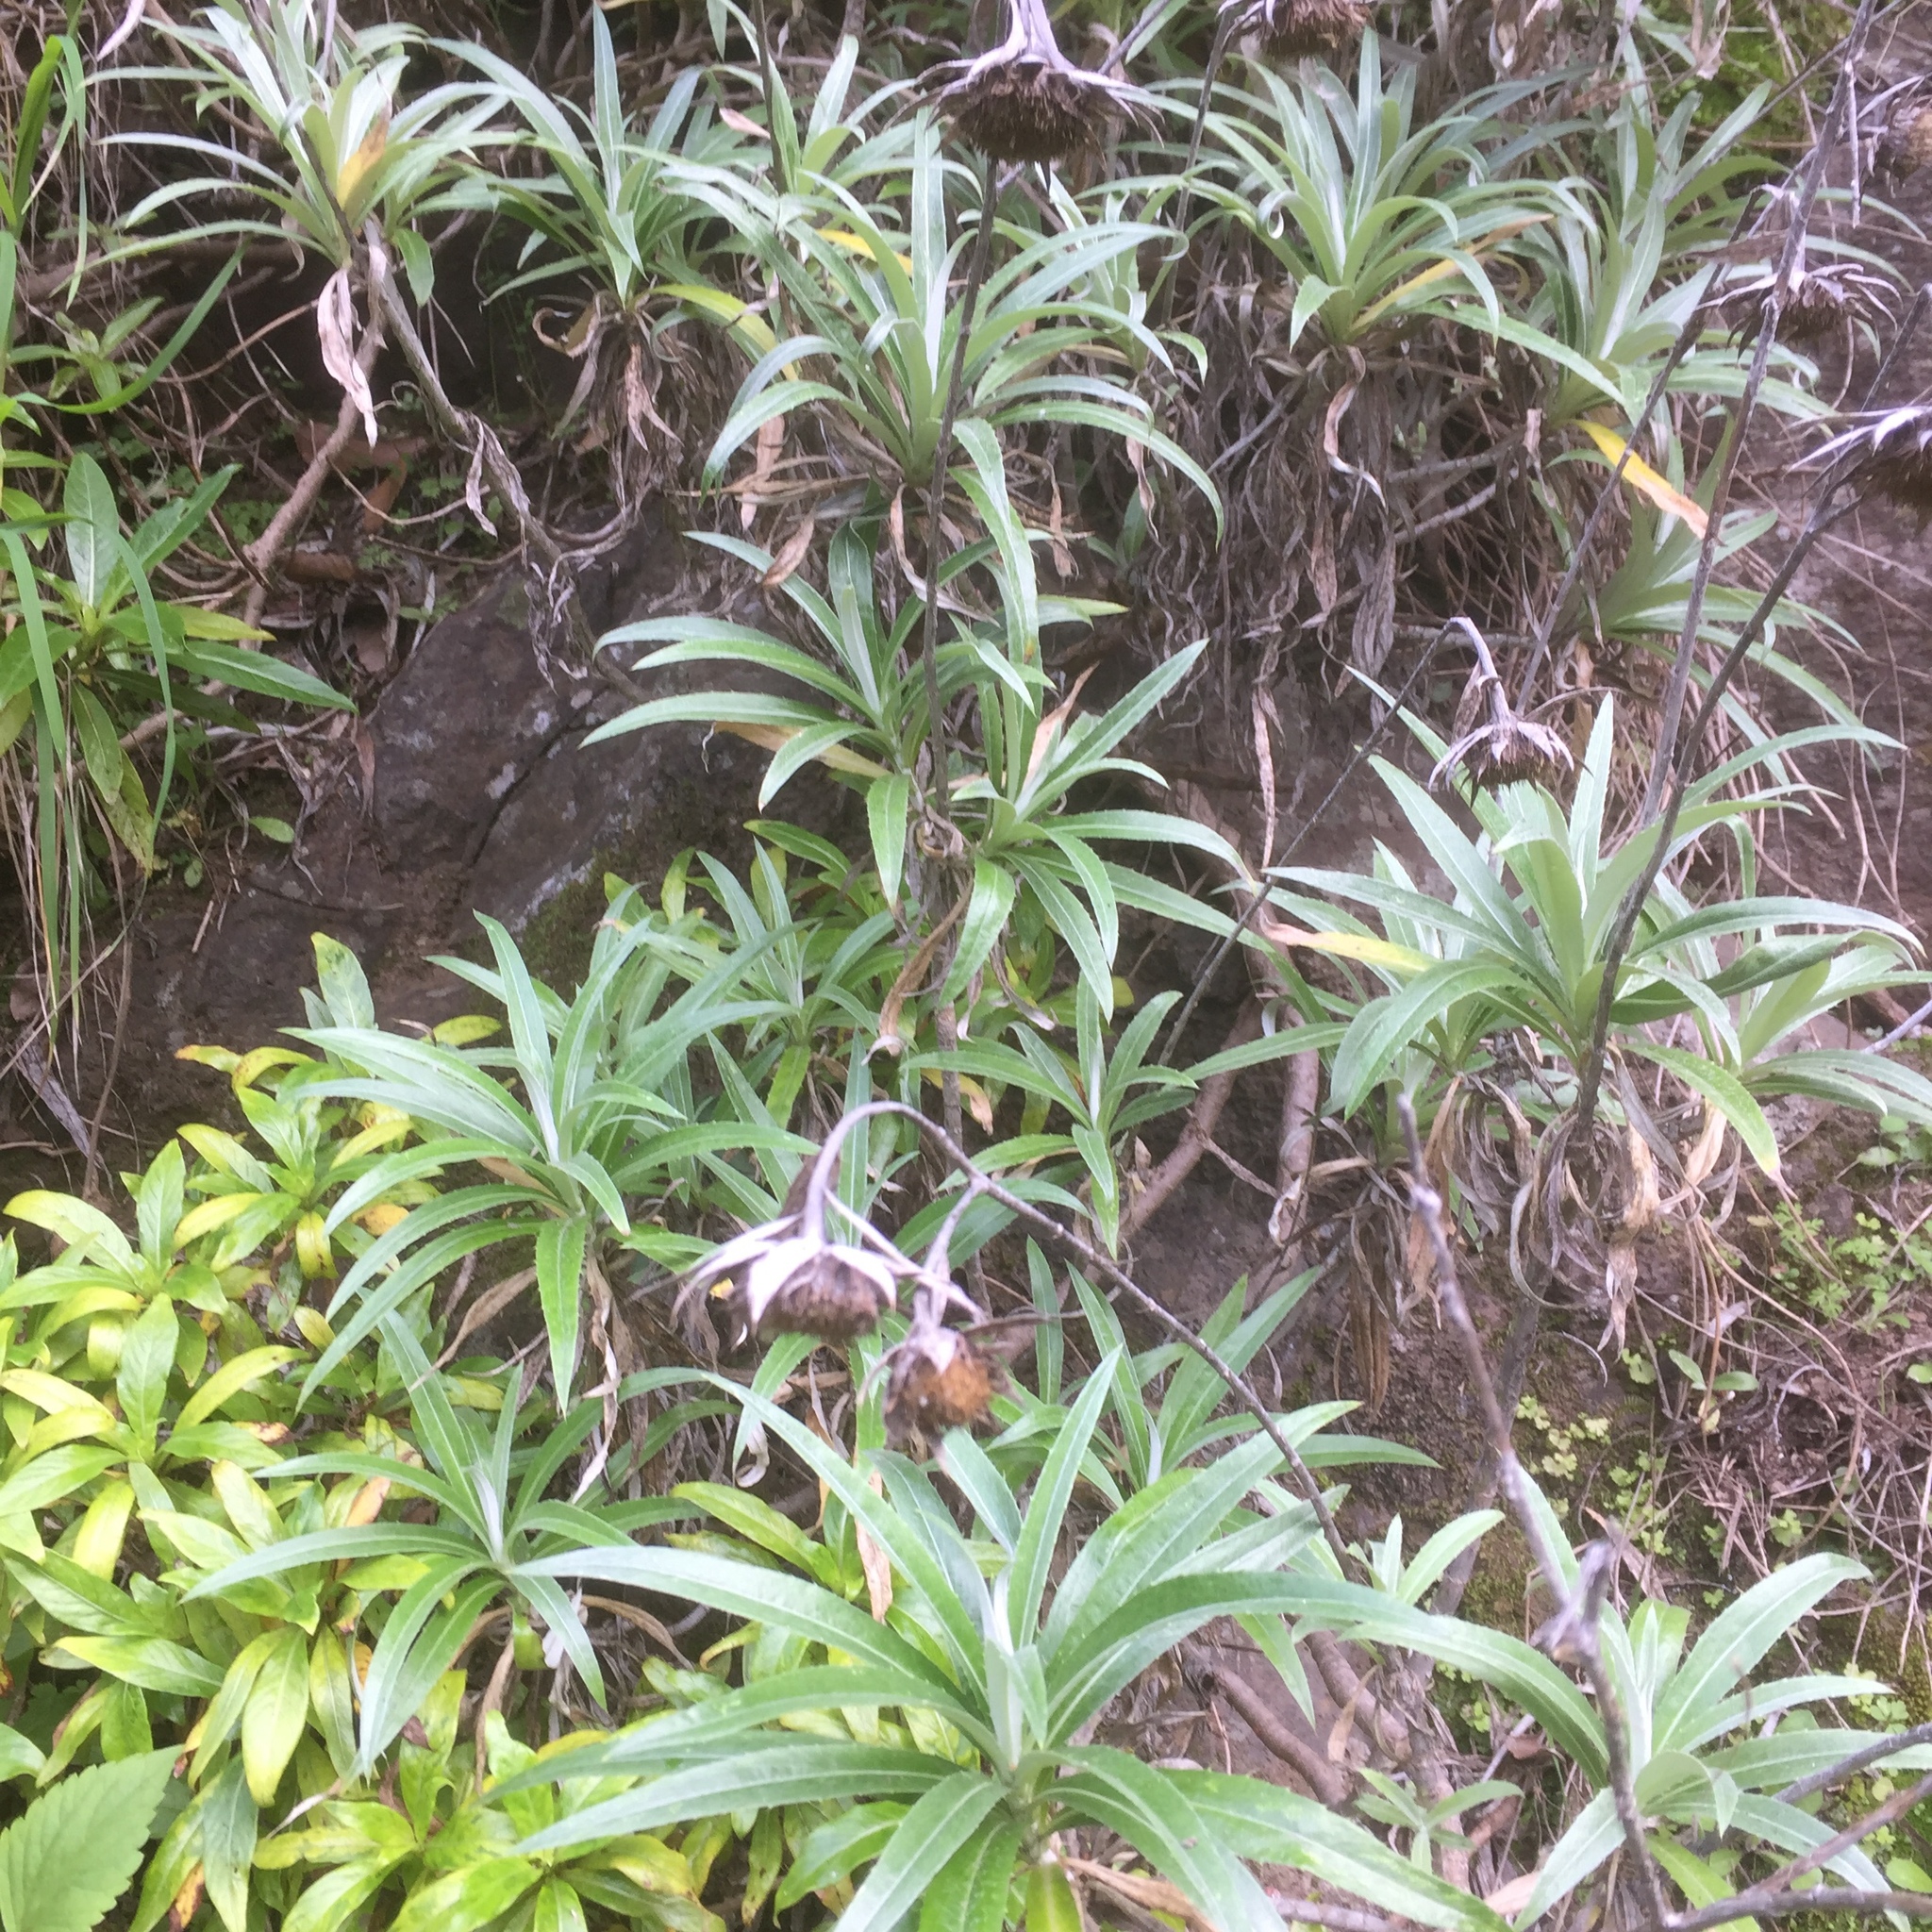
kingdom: Plantae
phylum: Tracheophyta
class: Magnoliopsida
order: Asterales
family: Asteraceae
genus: Carlina
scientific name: Carlina salicifolia
